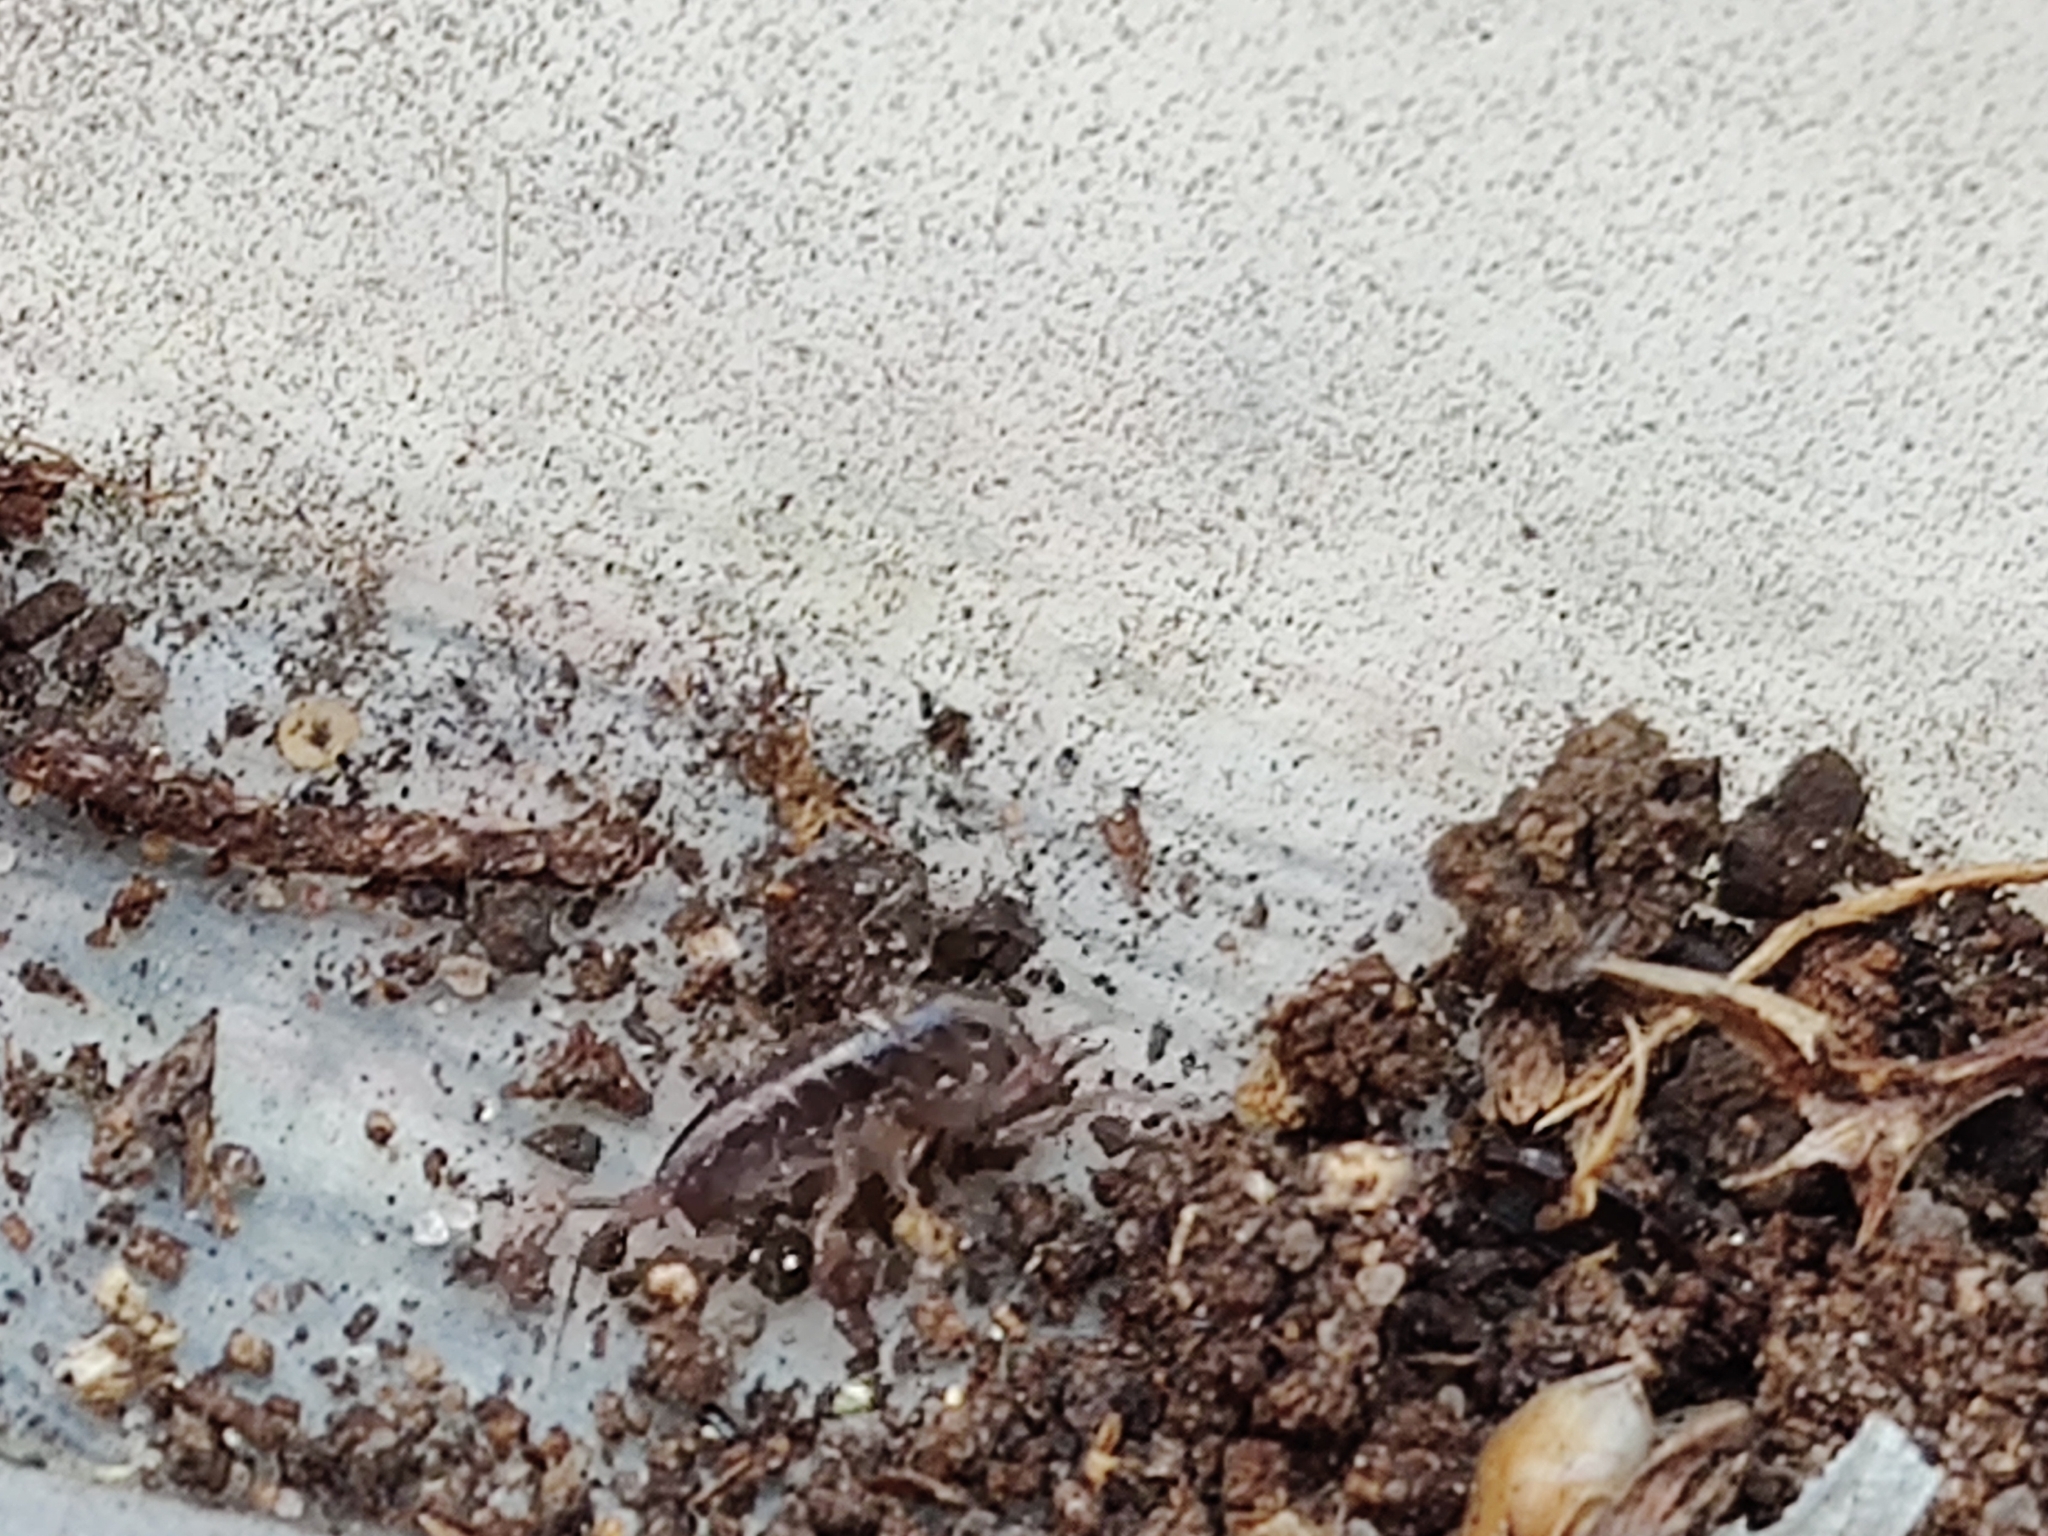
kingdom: Animalia
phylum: Arthropoda
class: Malacostraca
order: Amphipoda
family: Arcitalitridae
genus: Arcitalitrus
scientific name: Arcitalitrus dorrieni
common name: Landhopper
